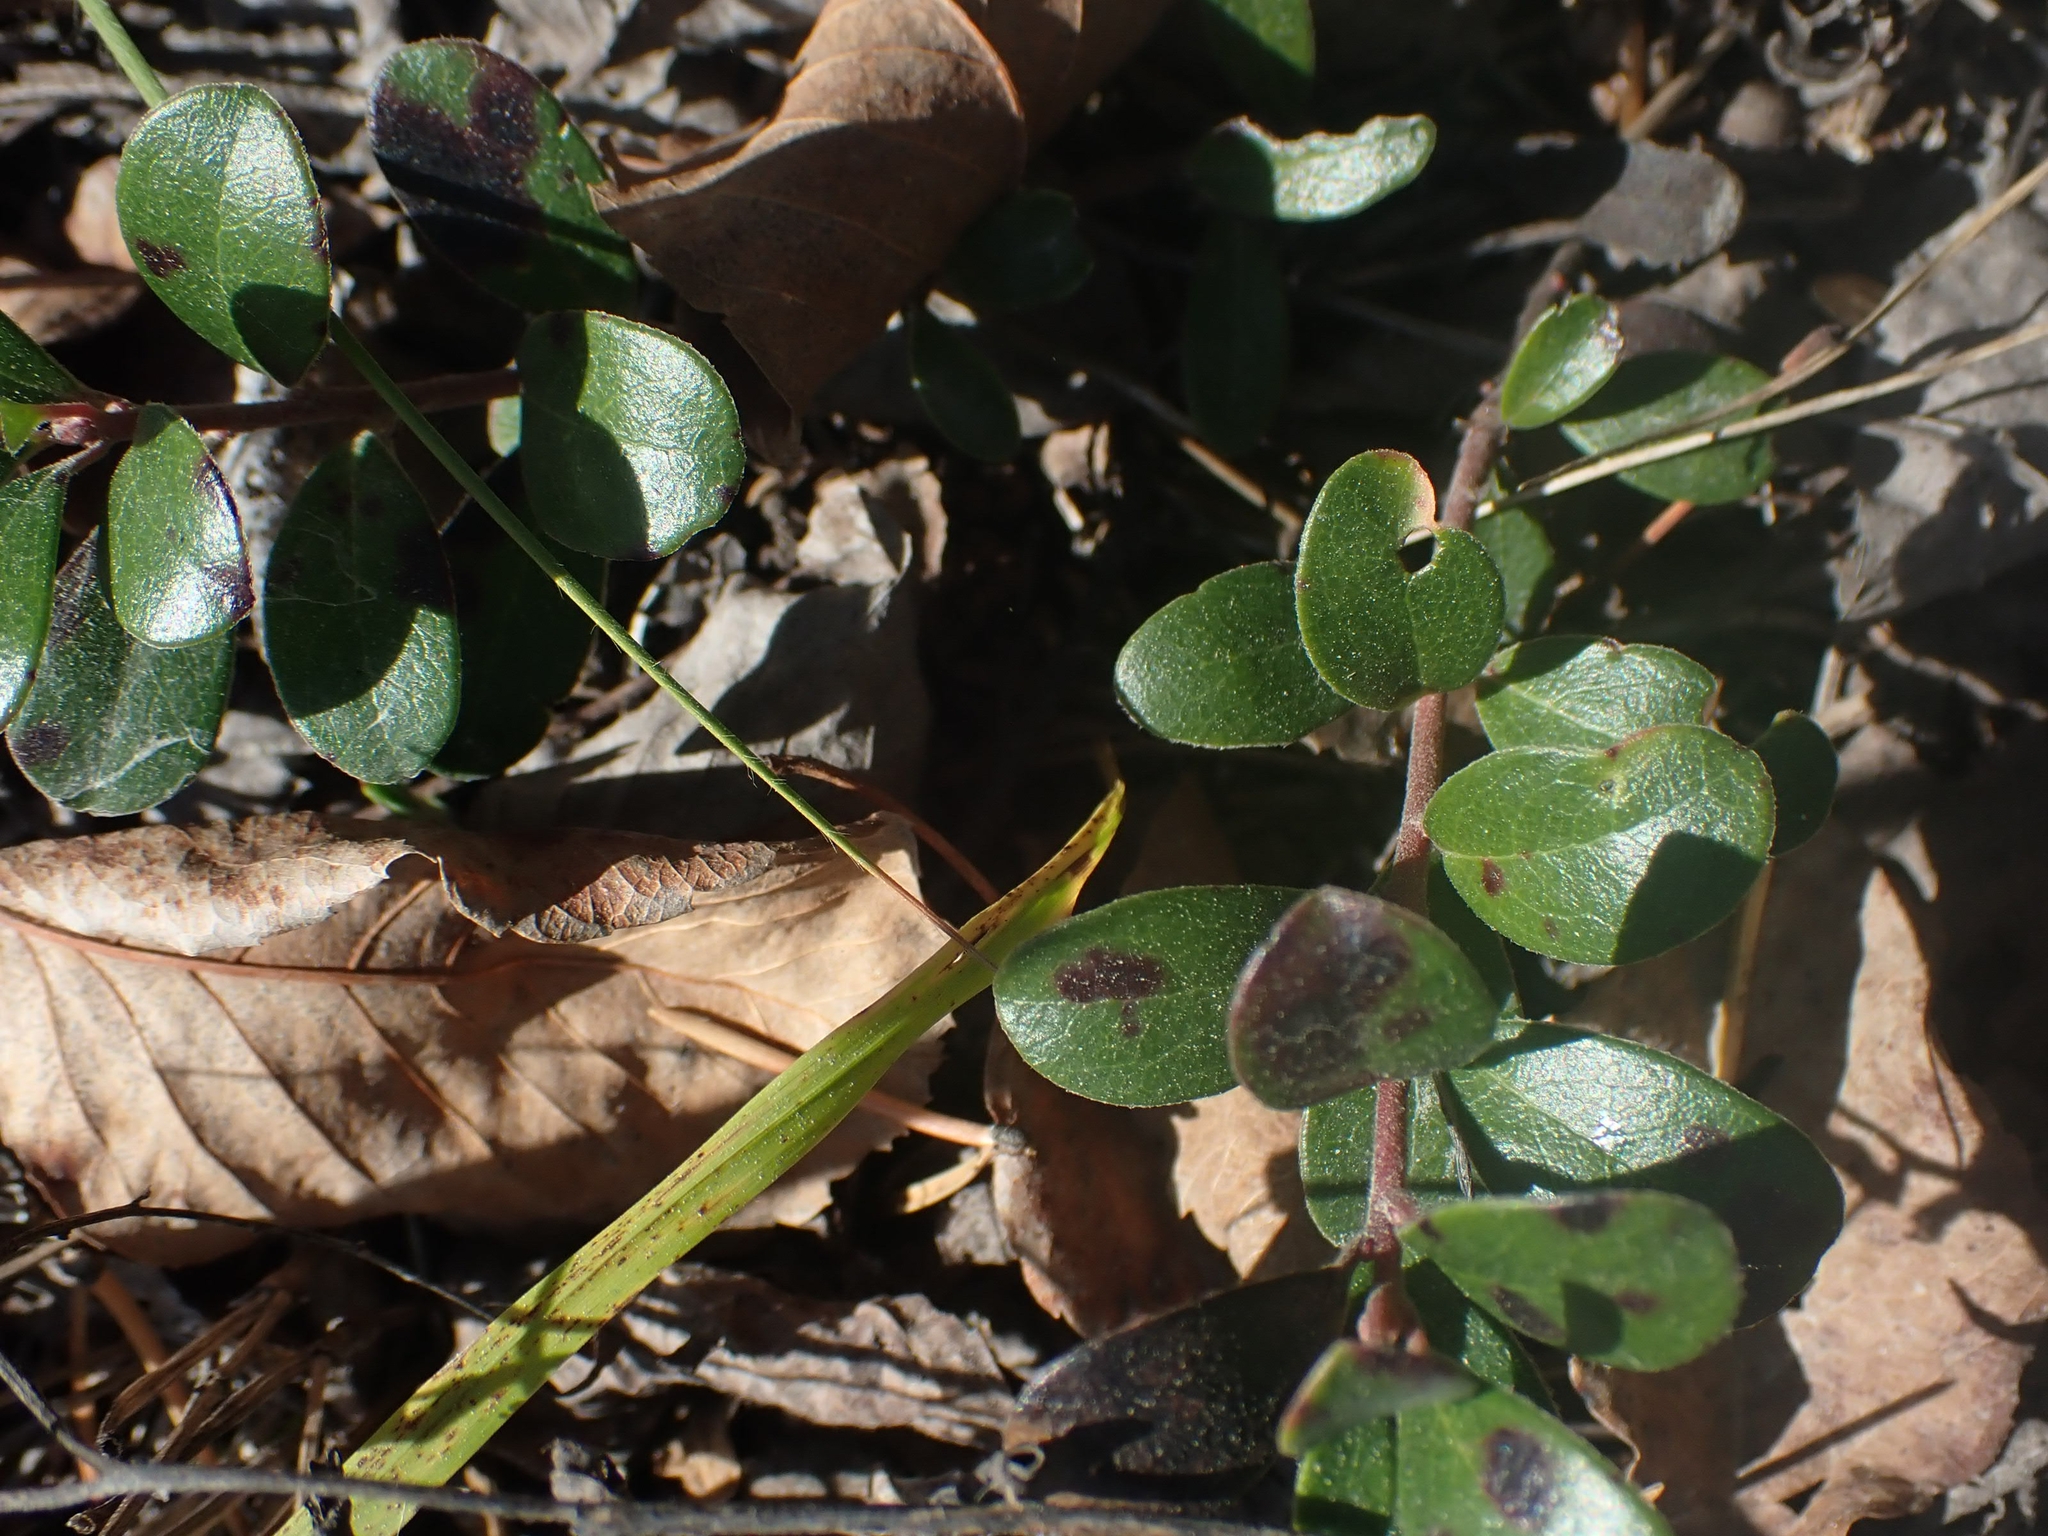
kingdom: Plantae
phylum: Tracheophyta
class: Magnoliopsida
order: Ericales
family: Ericaceae
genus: Arctostaphylos
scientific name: Arctostaphylos uva-ursi
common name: Bearberry
